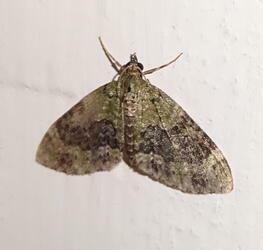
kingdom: Animalia
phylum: Arthropoda
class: Insecta
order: Lepidoptera
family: Geometridae
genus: Acasis
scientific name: Acasis viretata
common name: Yellow-barred brindle
